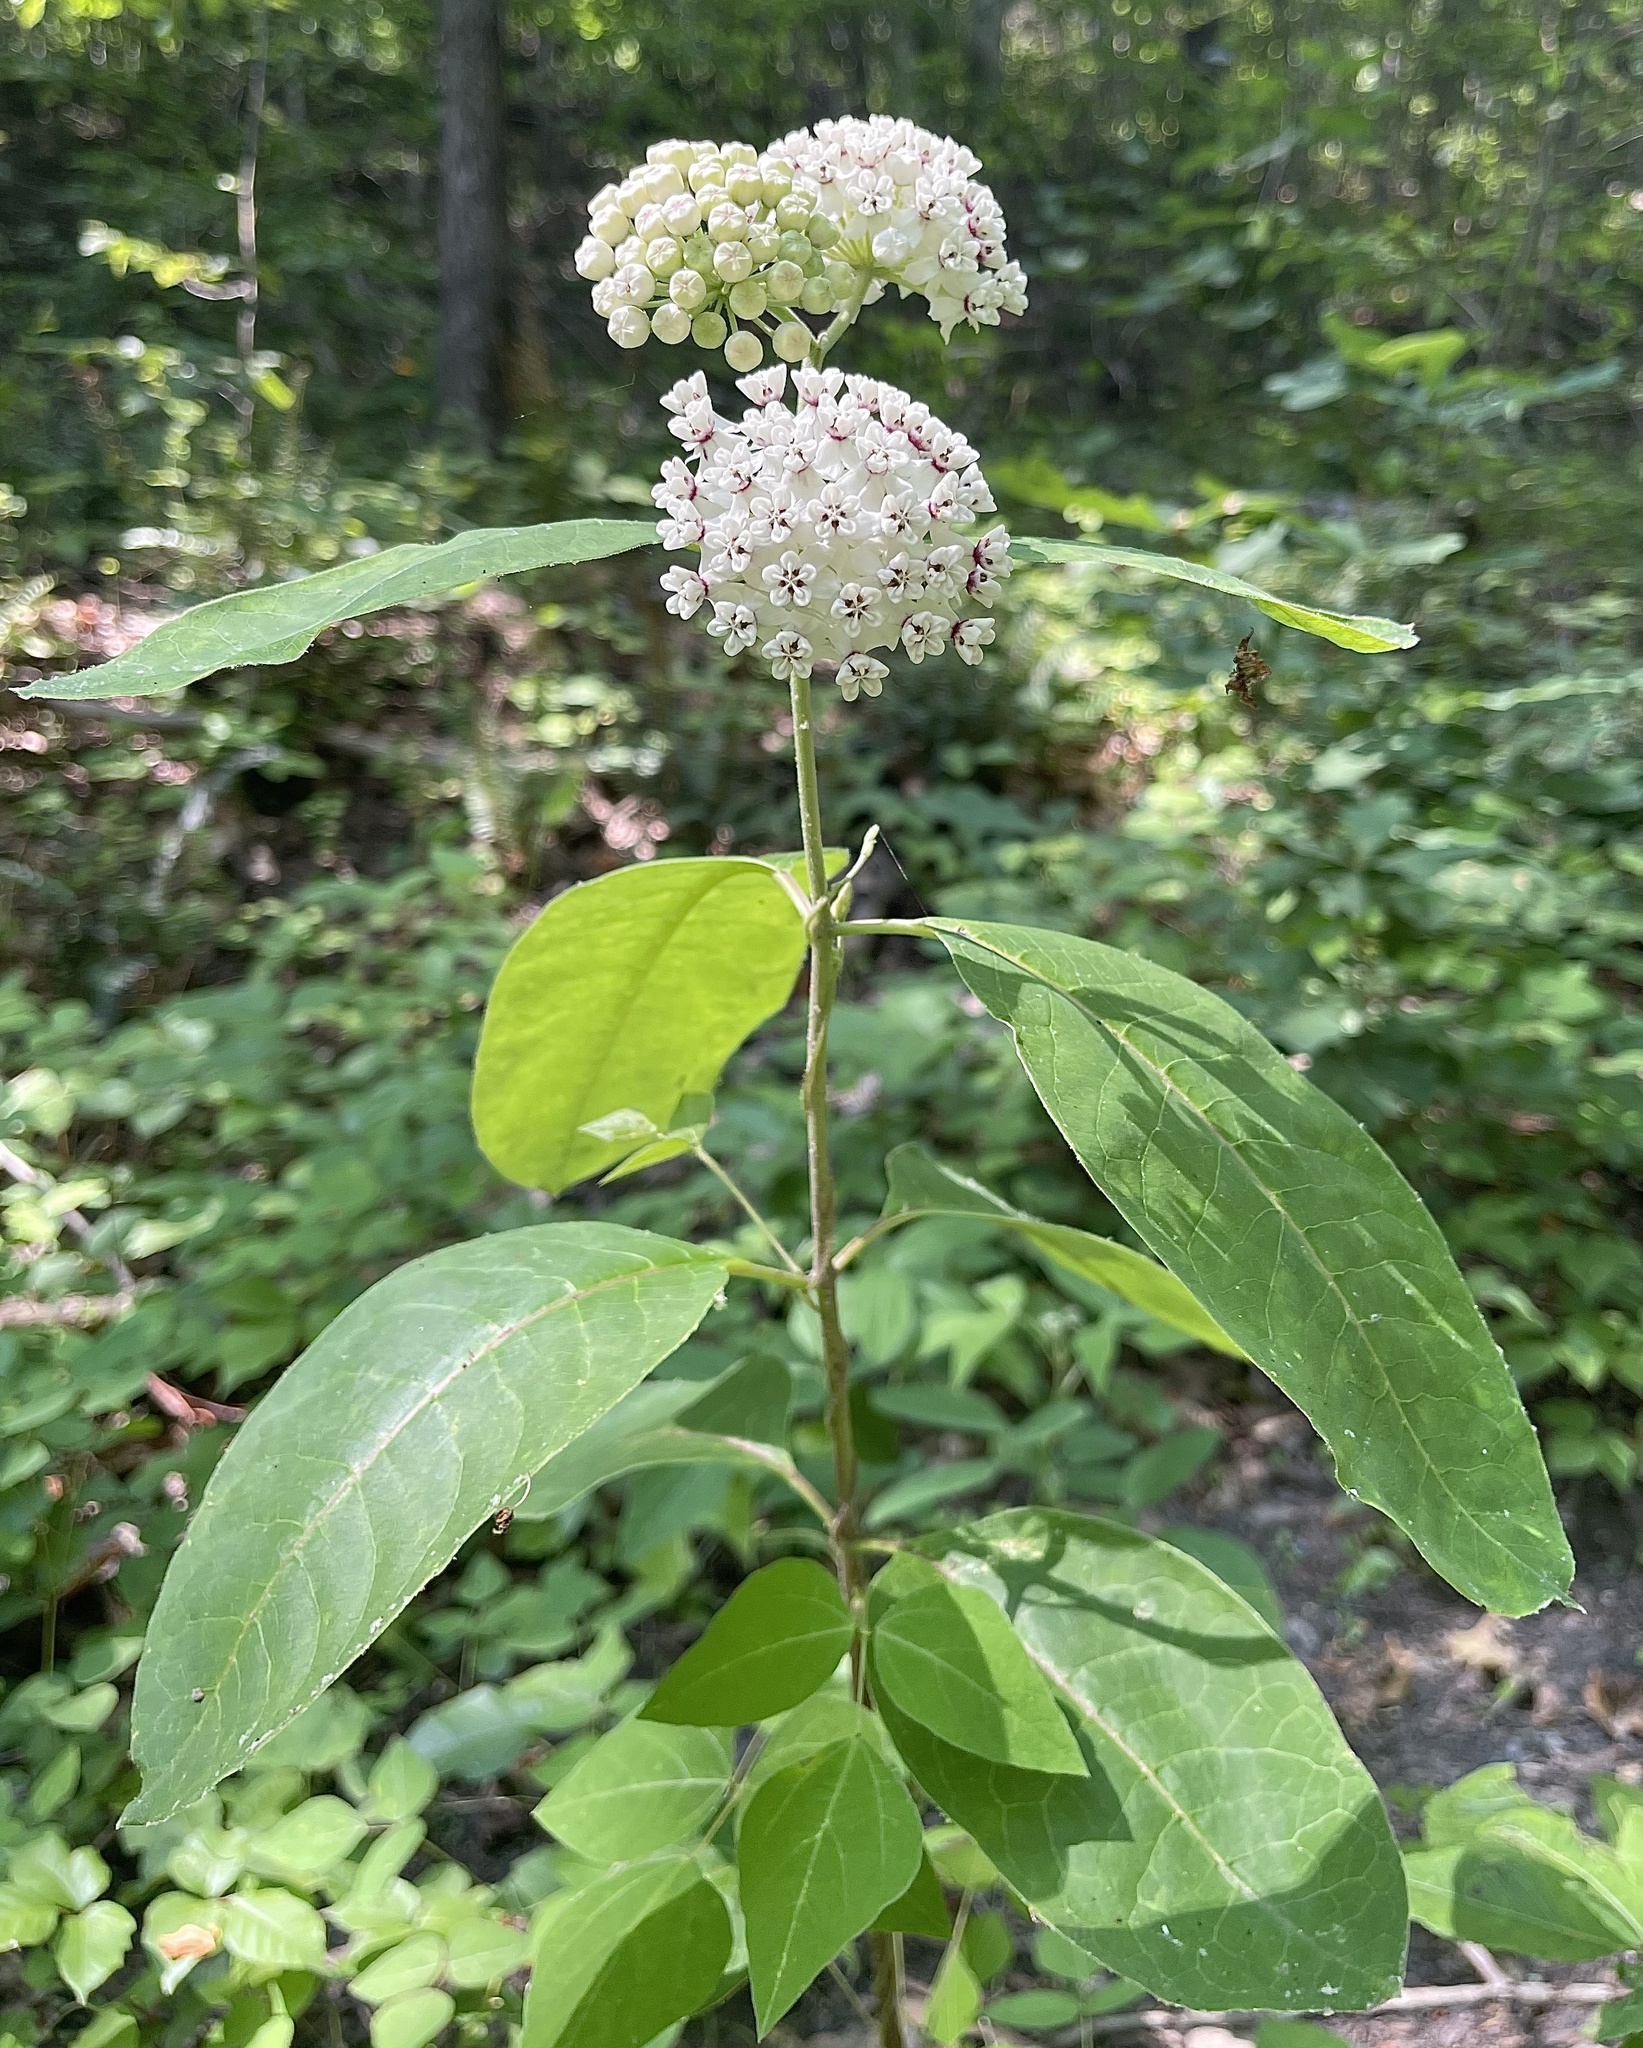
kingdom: Plantae
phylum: Tracheophyta
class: Magnoliopsida
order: Gentianales
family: Apocynaceae
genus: Asclepias
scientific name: Asclepias variegata
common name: Variegated milkweed
